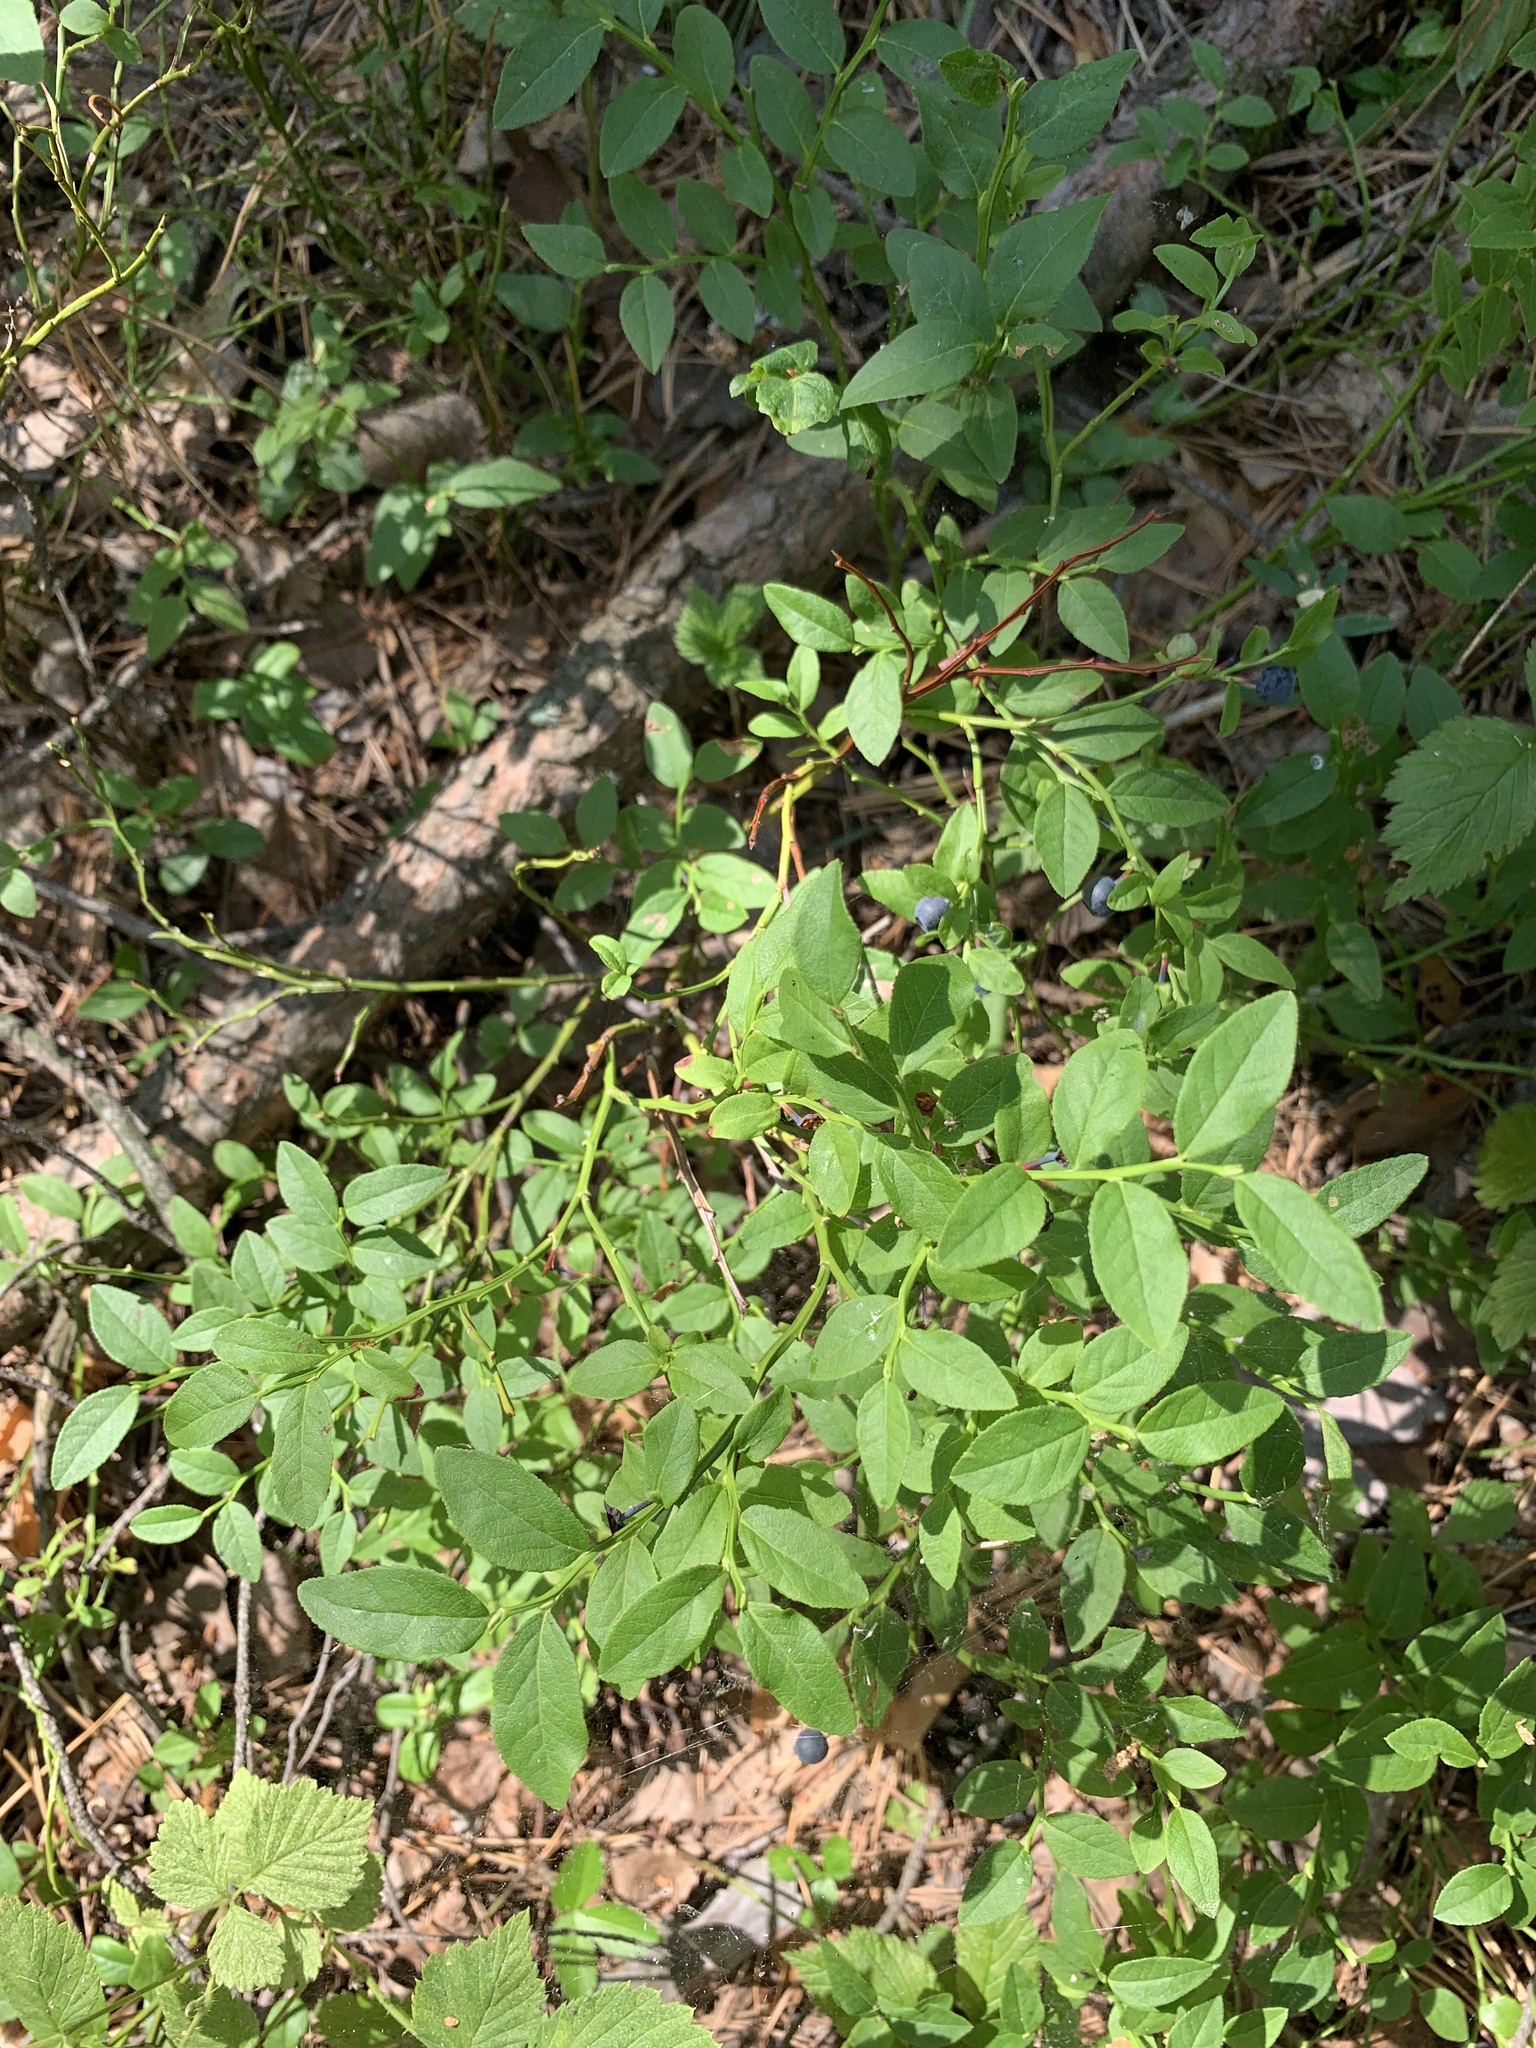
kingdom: Plantae
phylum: Tracheophyta
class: Magnoliopsida
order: Ericales
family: Ericaceae
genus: Vaccinium
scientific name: Vaccinium myrtillus
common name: Bilberry
